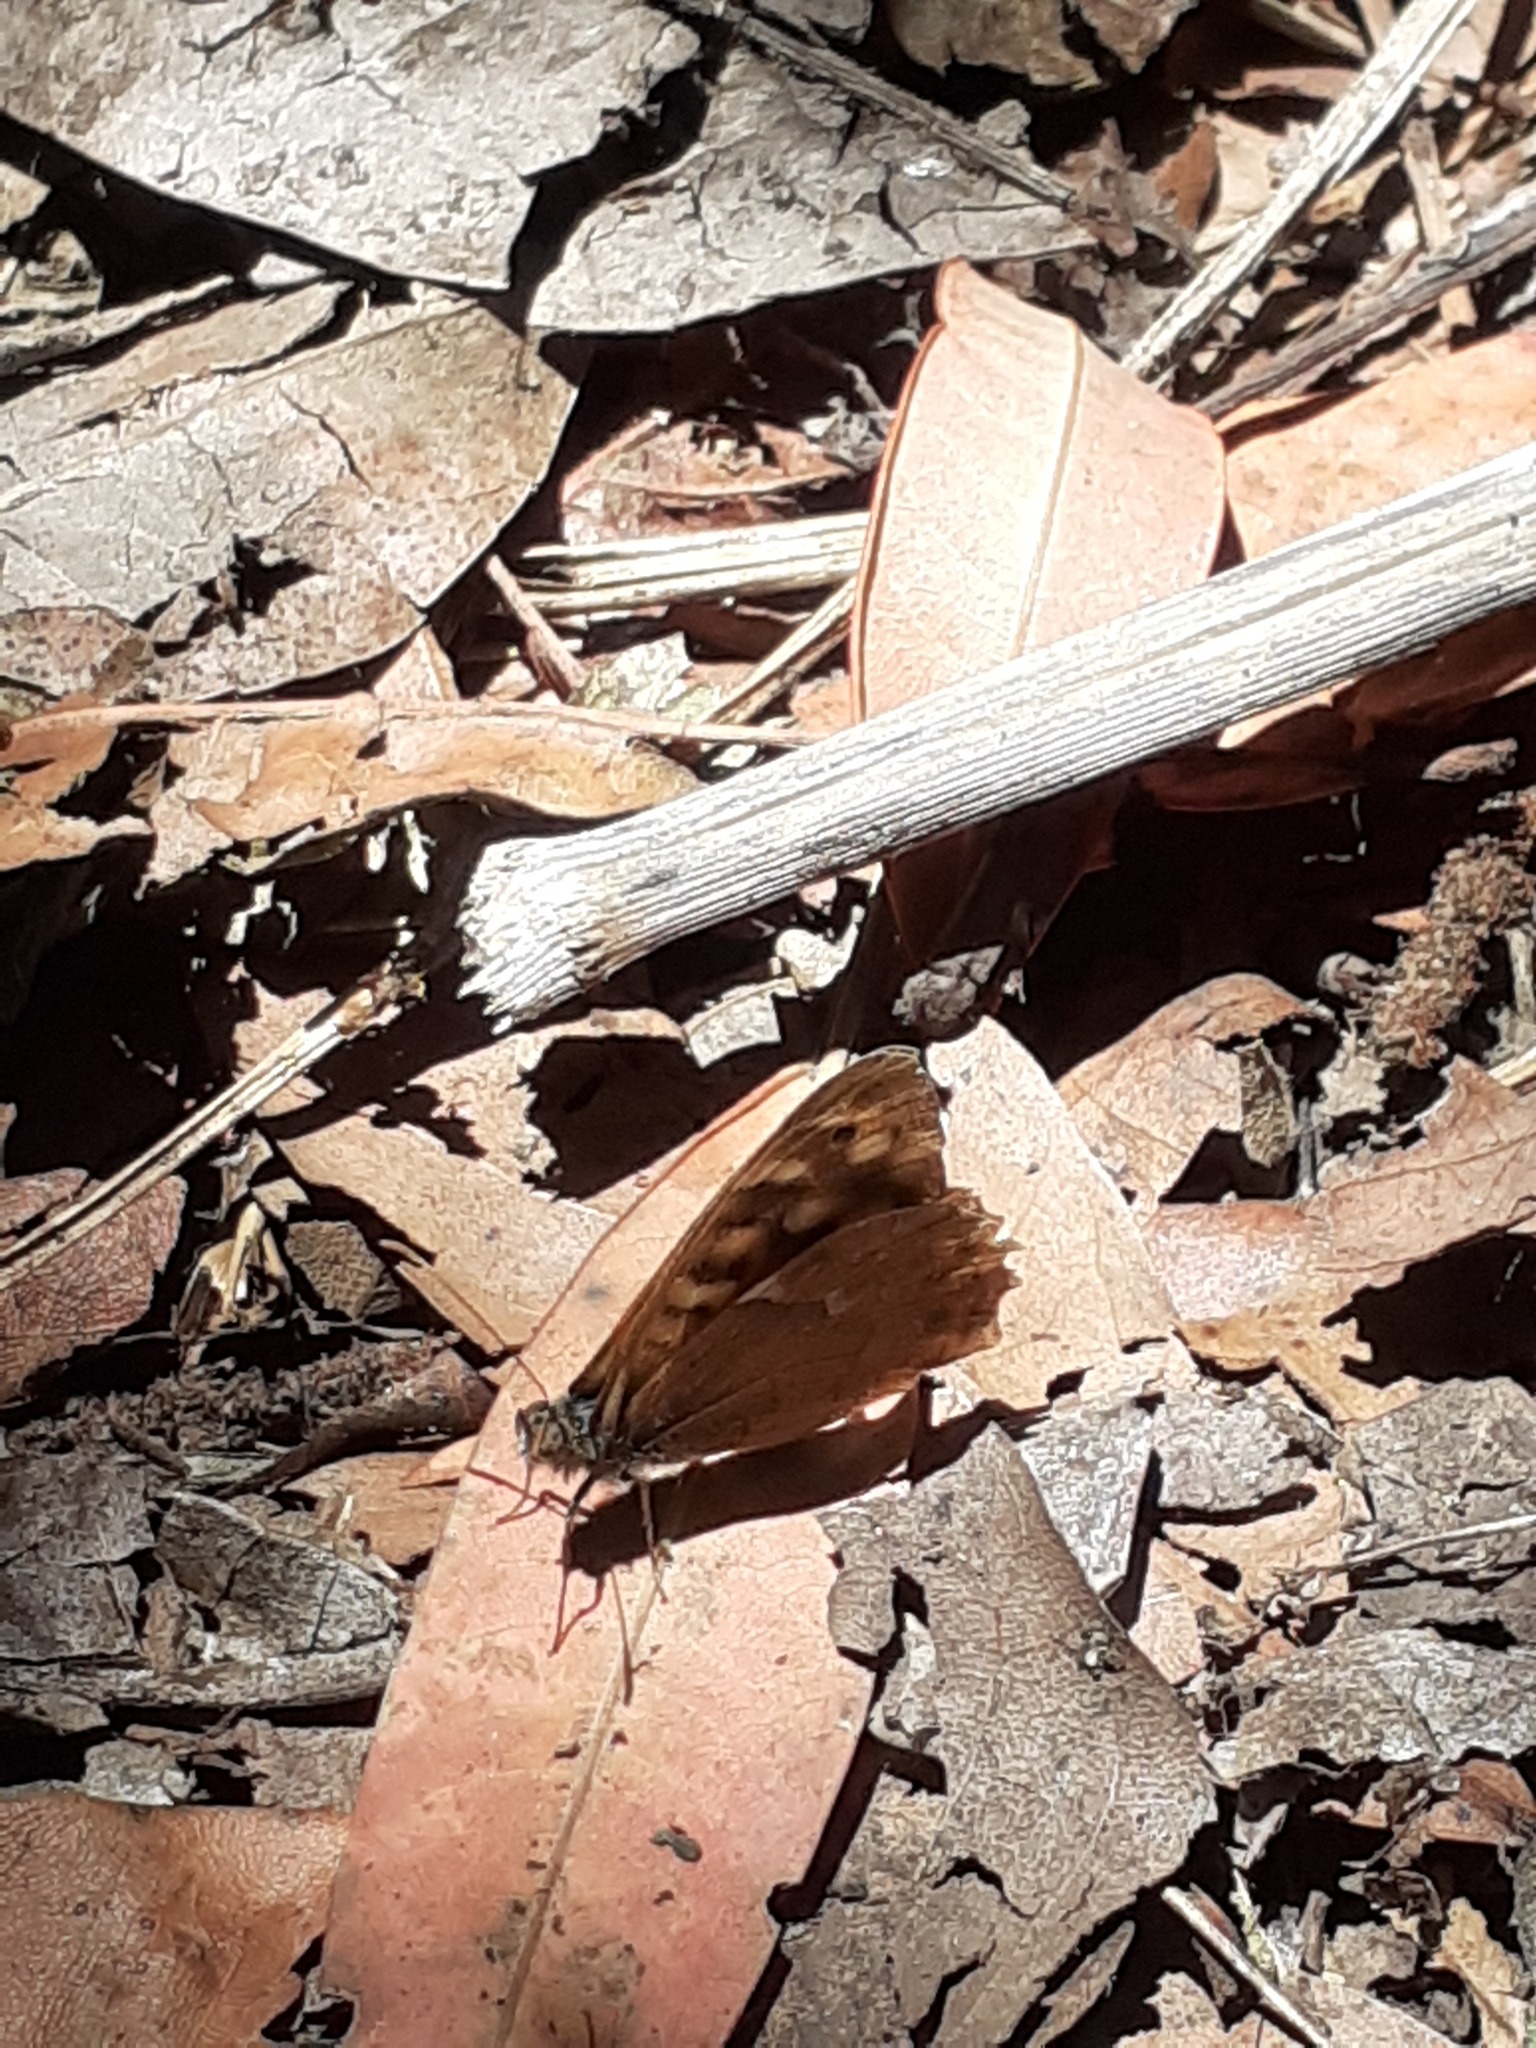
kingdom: Animalia
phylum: Arthropoda
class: Insecta
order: Lepidoptera
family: Nymphalidae
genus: Pararge
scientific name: Pararge aegeria
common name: Speckled wood
